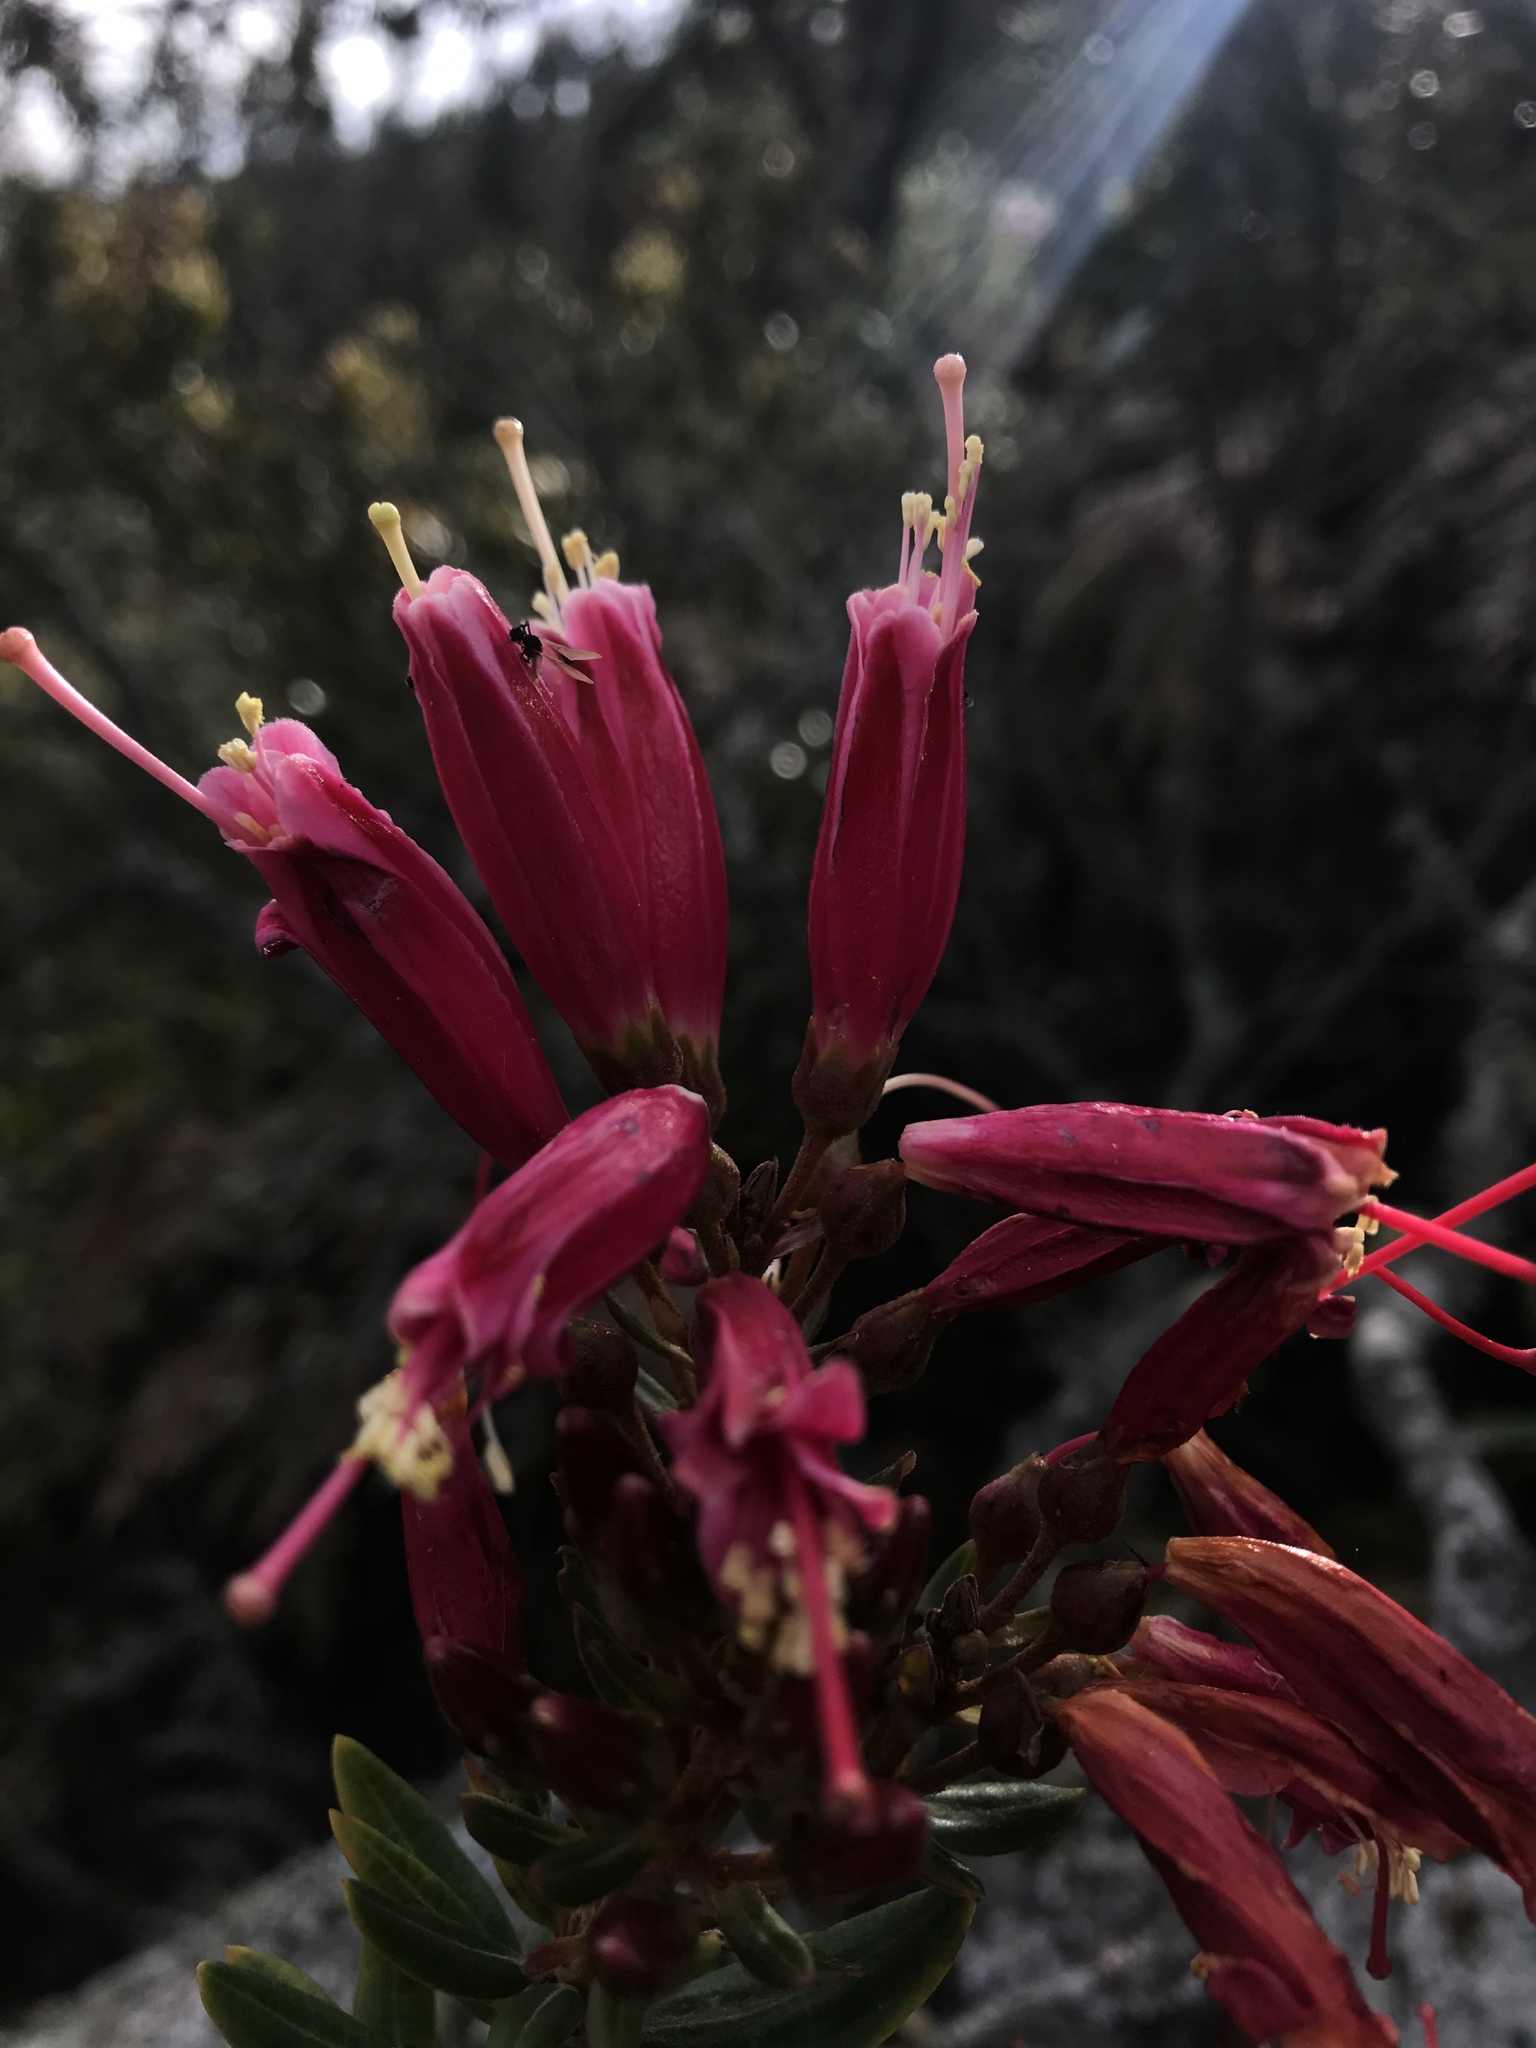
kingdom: Plantae
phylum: Tracheophyta
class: Magnoliopsida
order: Ericales
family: Ericaceae
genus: Bejaria
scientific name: Bejaria resinosa
